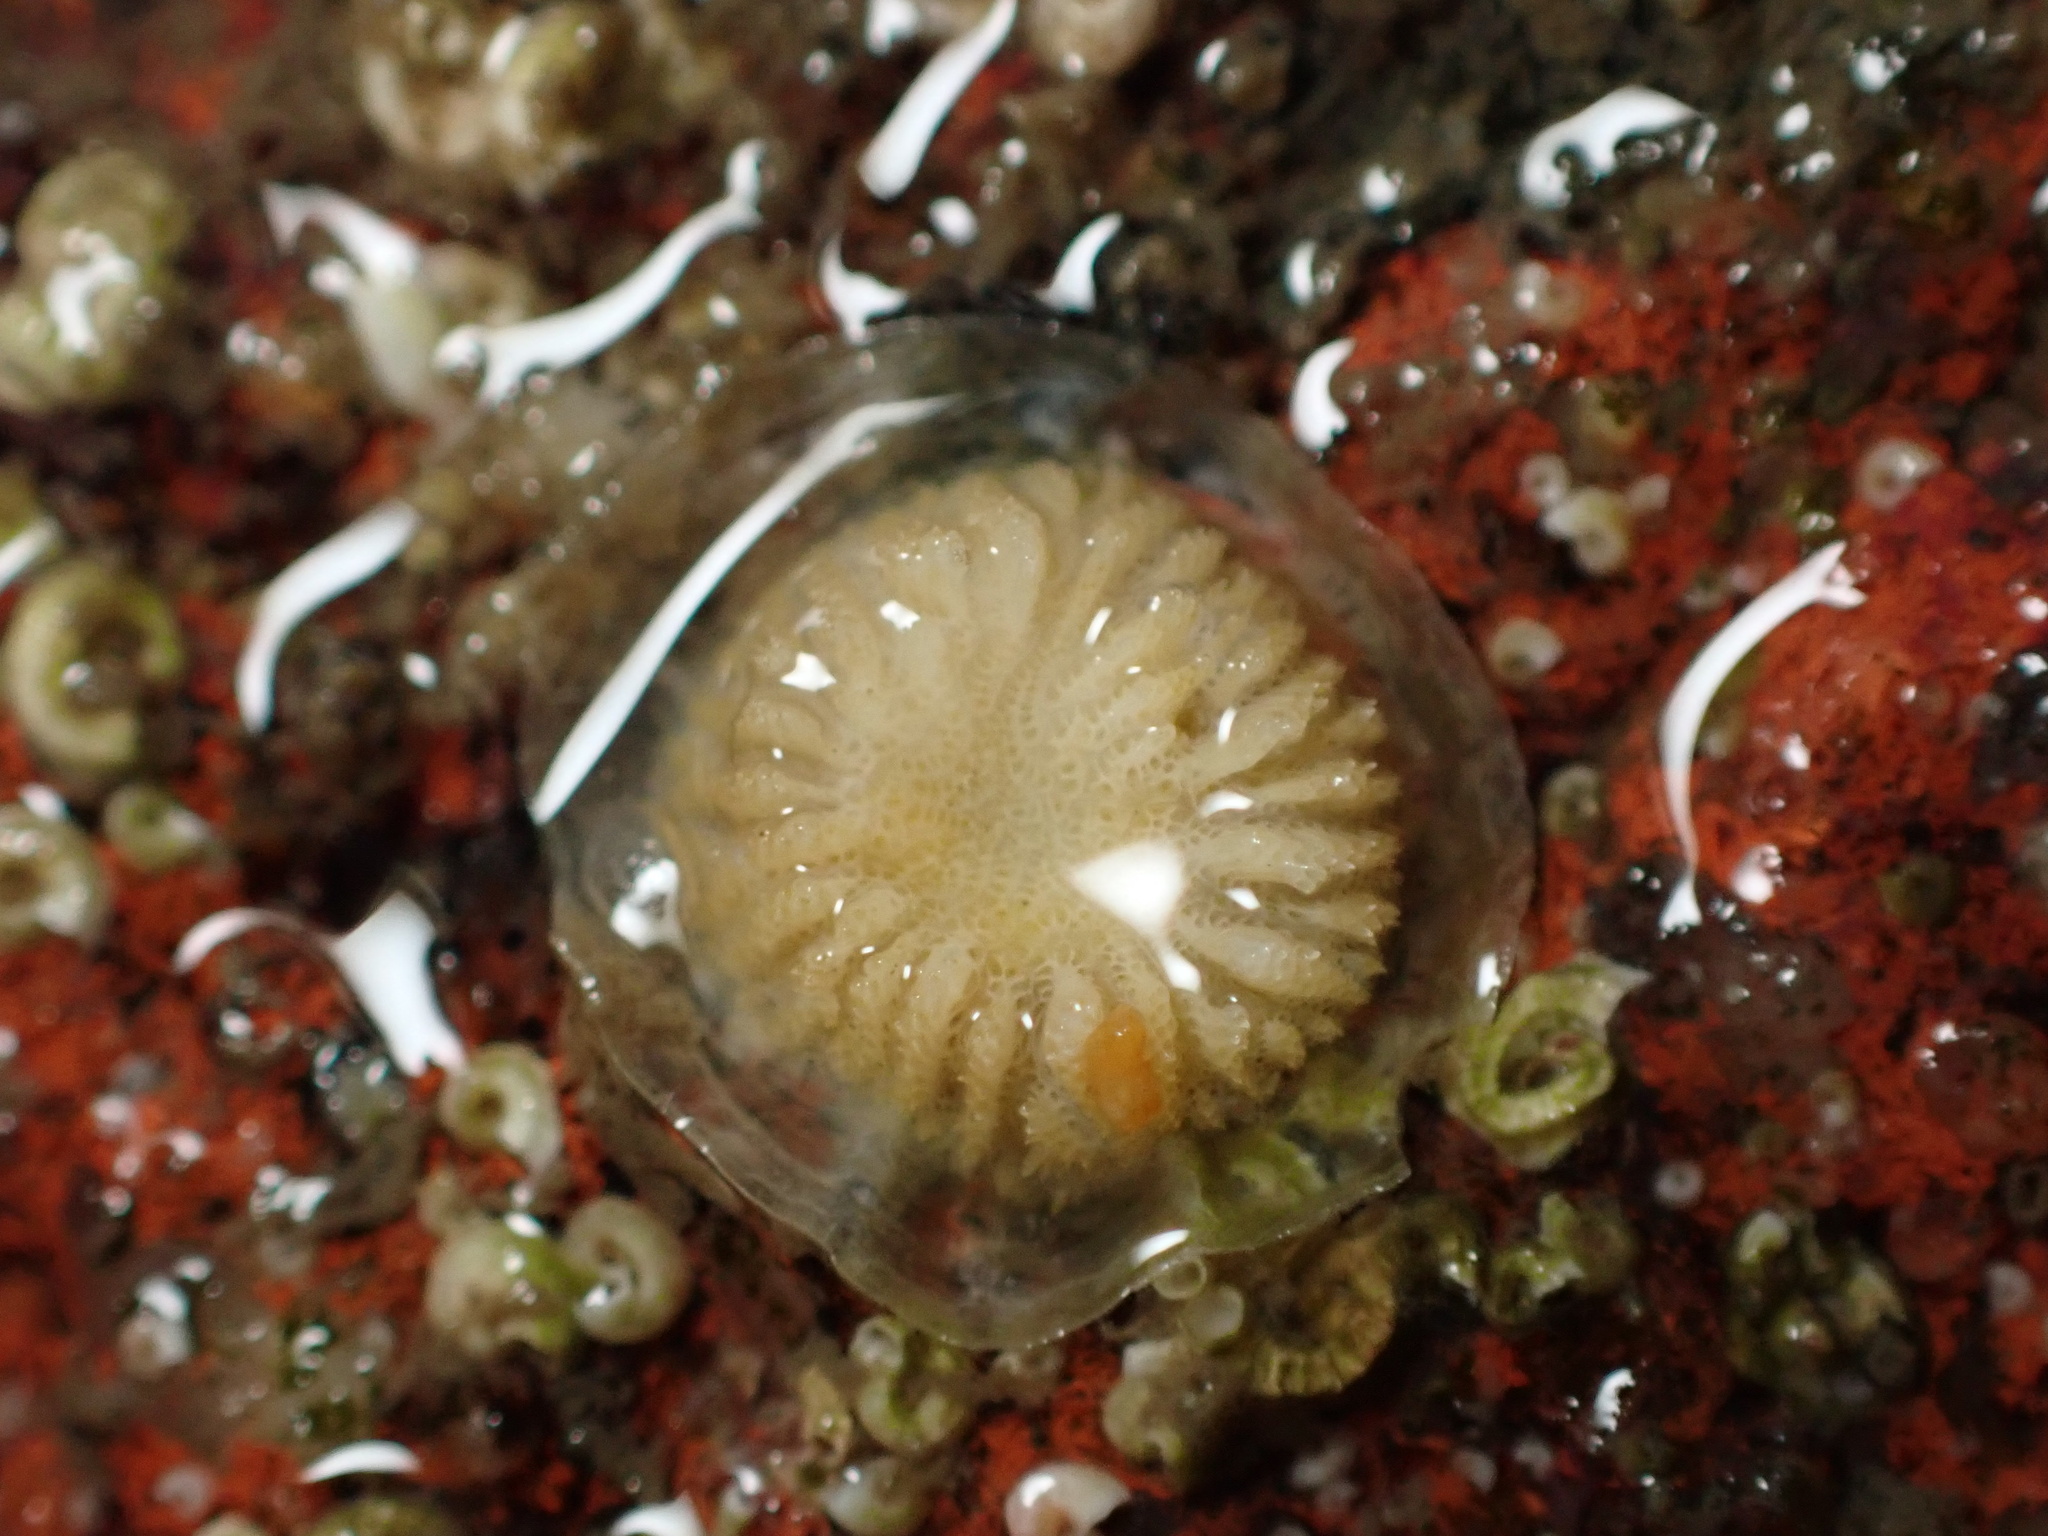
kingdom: Animalia
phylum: Bryozoa
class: Stenolaemata
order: Cyclostomatida
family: Lichenoporidae
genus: Patinella
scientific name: Patinella radiata
